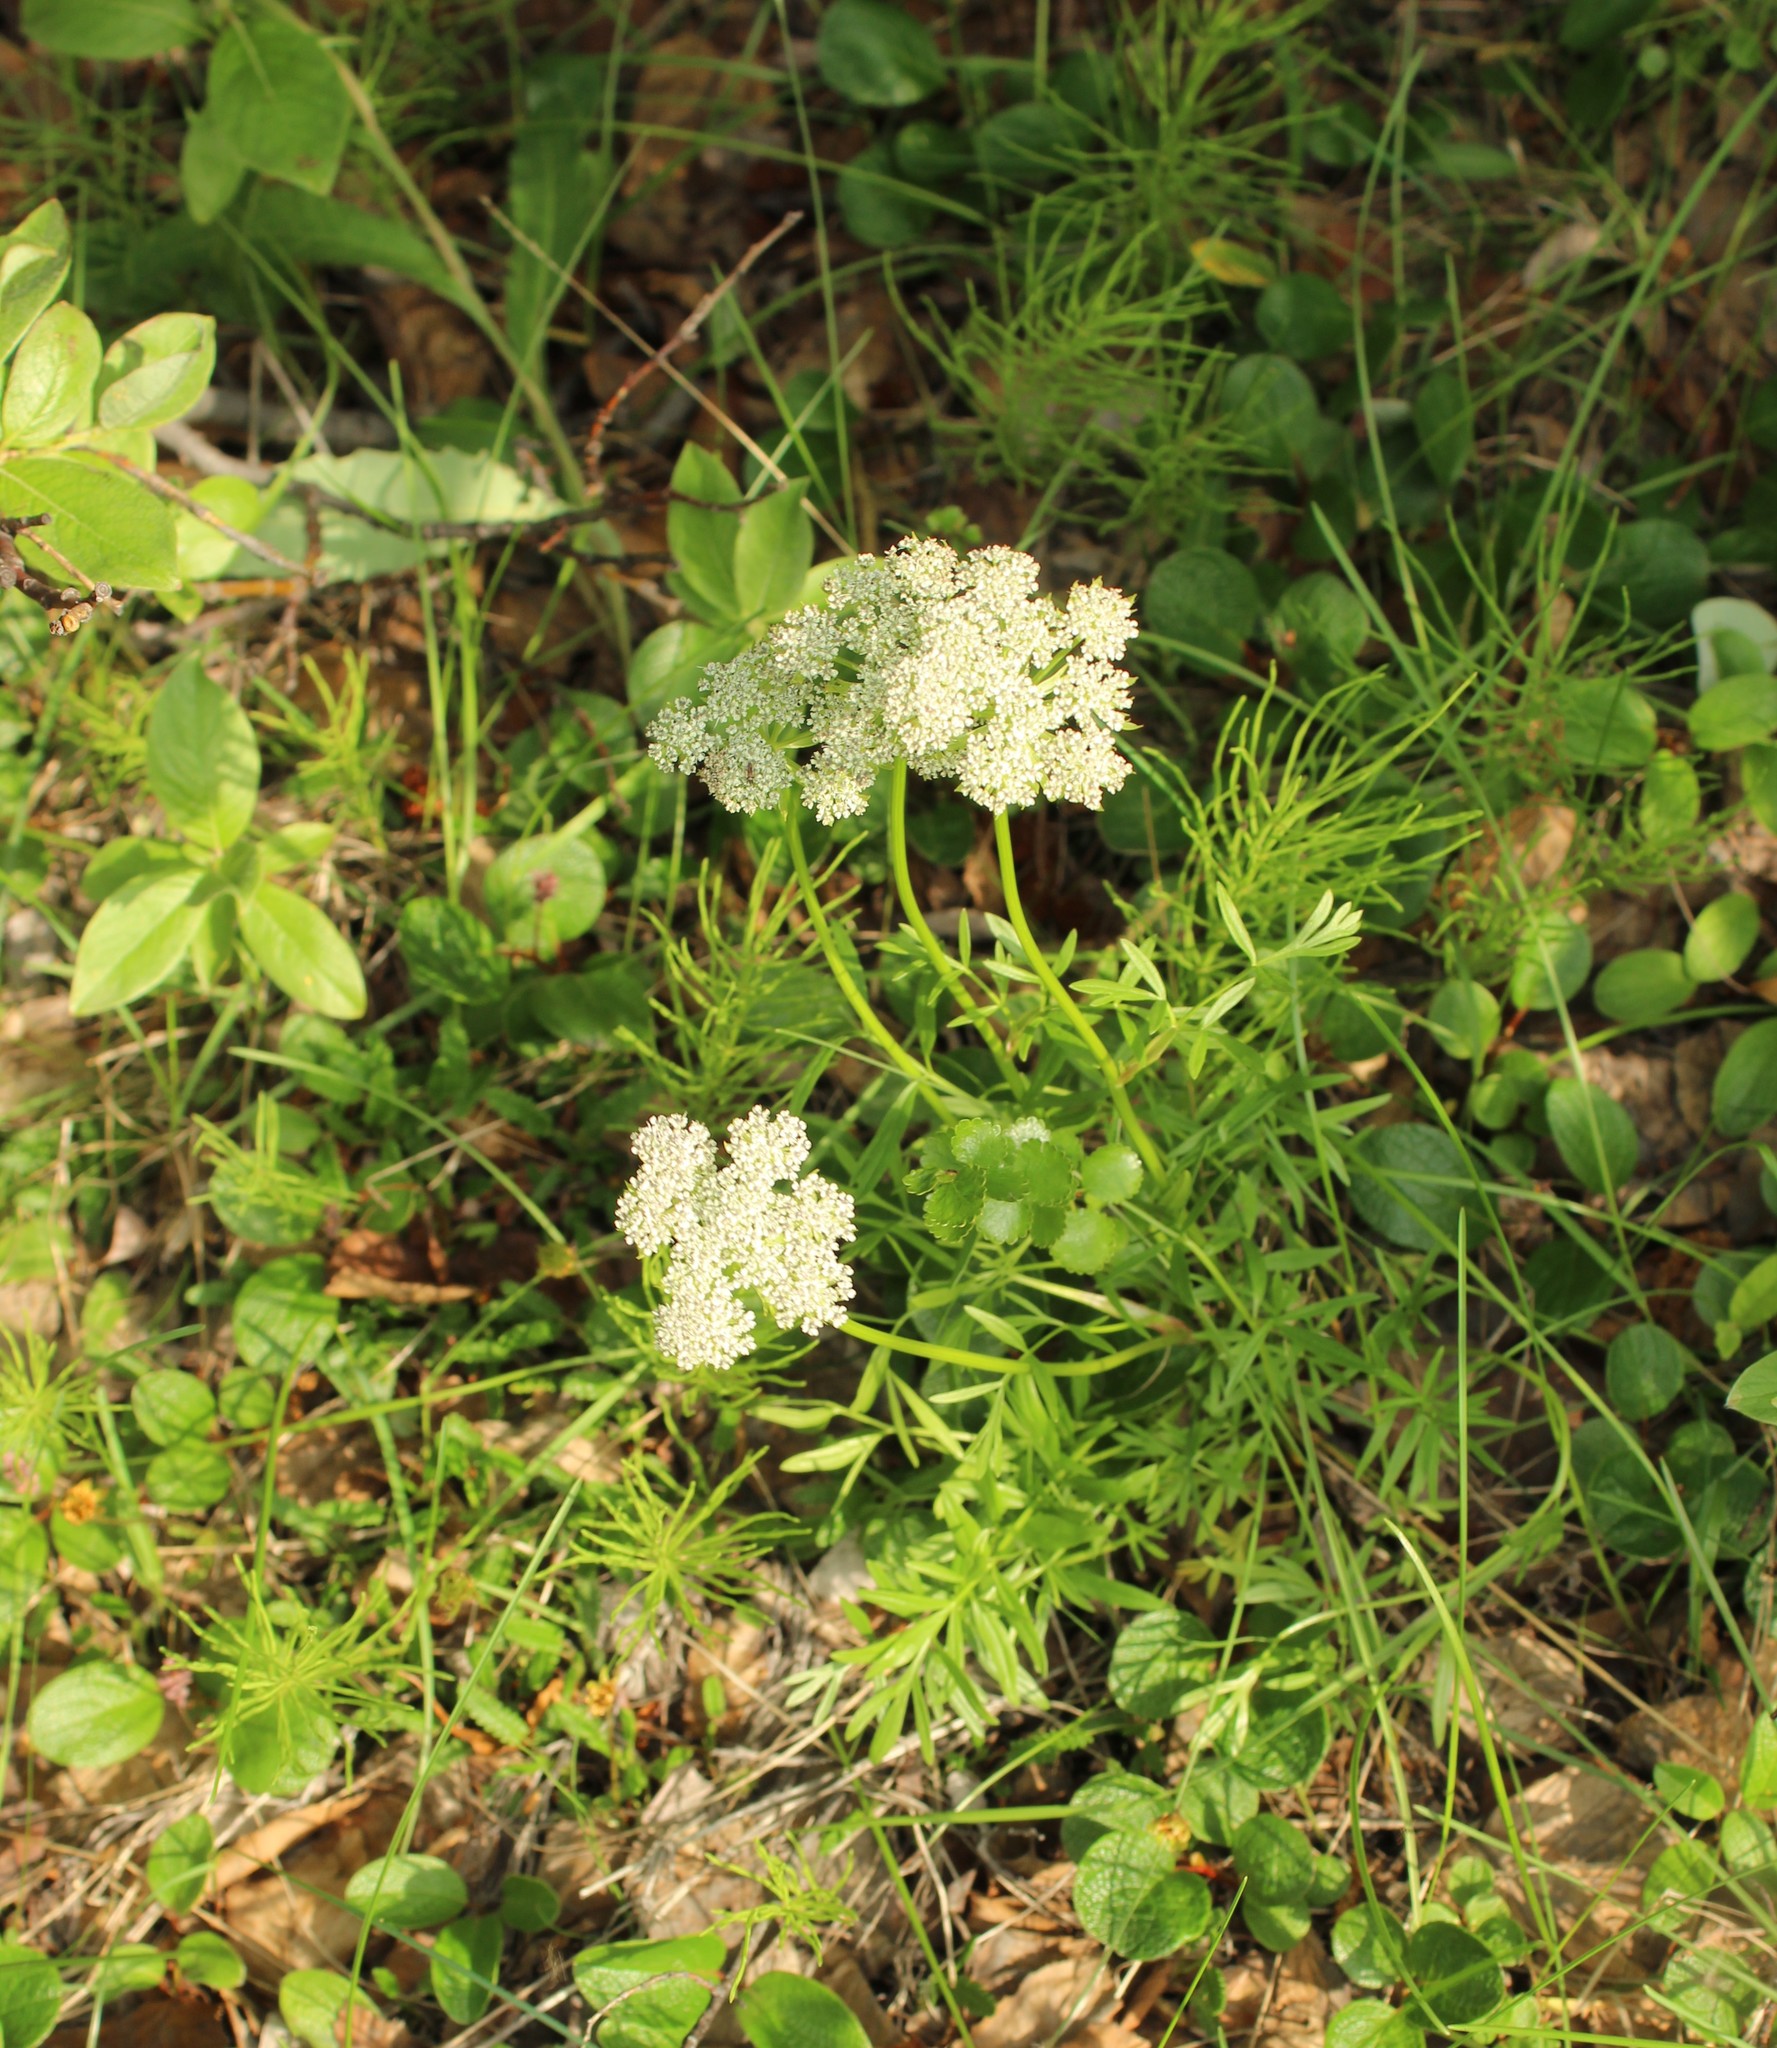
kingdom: Plantae
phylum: Tracheophyta
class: Magnoliopsida
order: Apiales
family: Apiaceae
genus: Pachypleurum
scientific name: Pachypleurum mutellinoides
